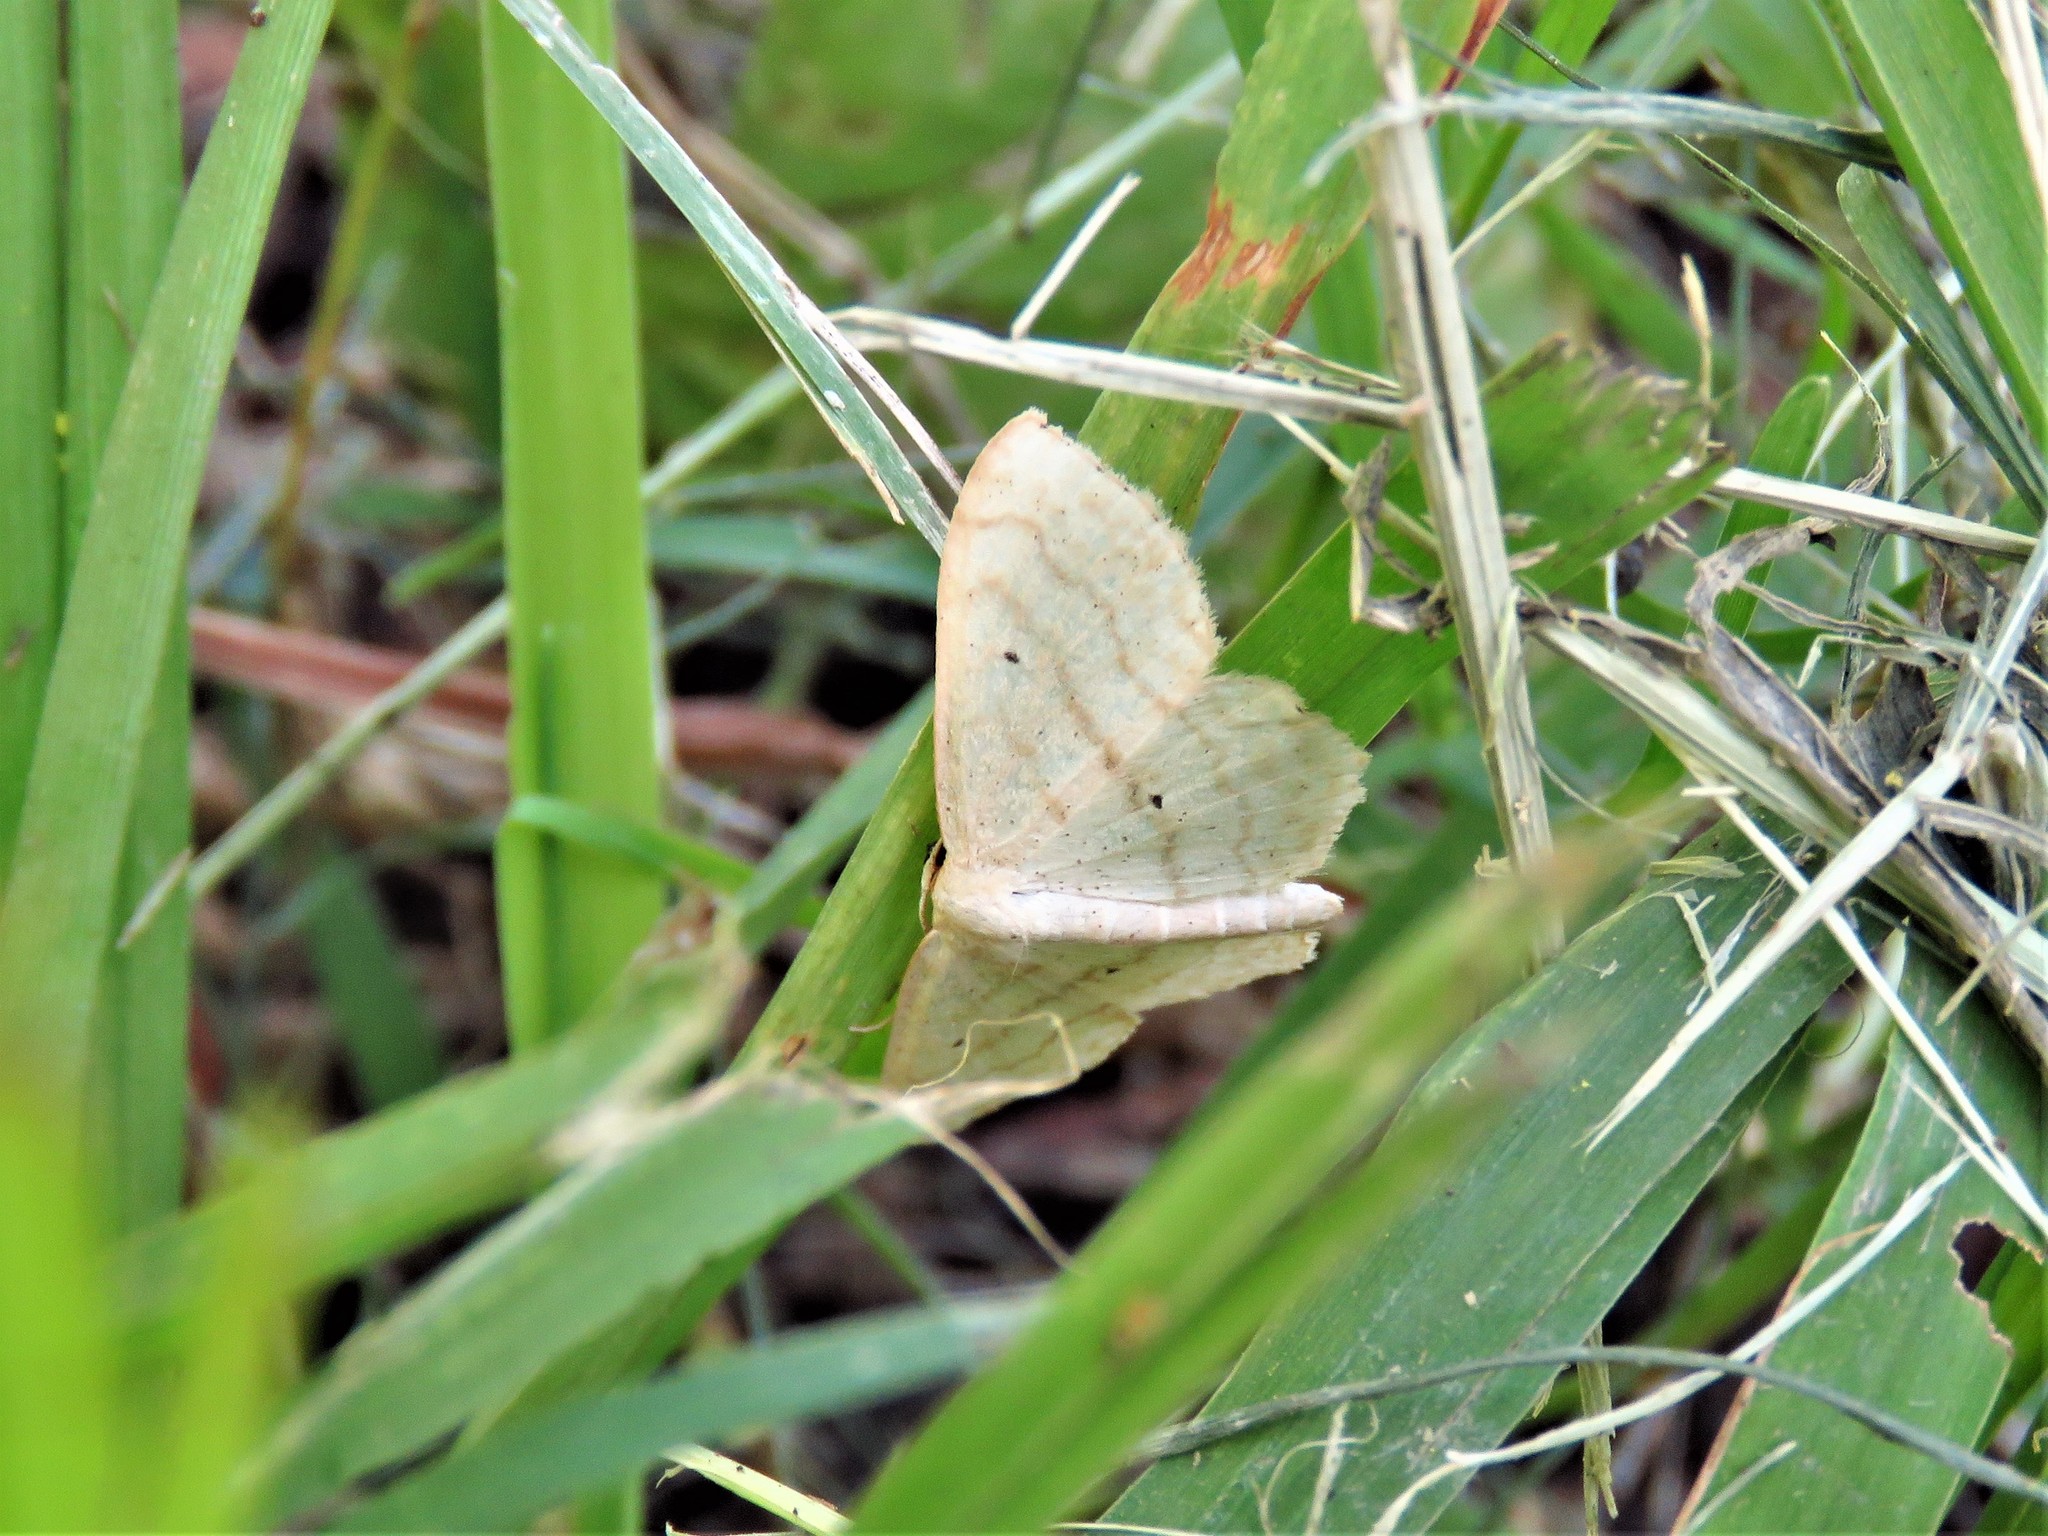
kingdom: Animalia
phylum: Arthropoda
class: Insecta
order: Lepidoptera
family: Geometridae
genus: Scopula
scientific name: Scopula limboundata
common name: Large lace border
